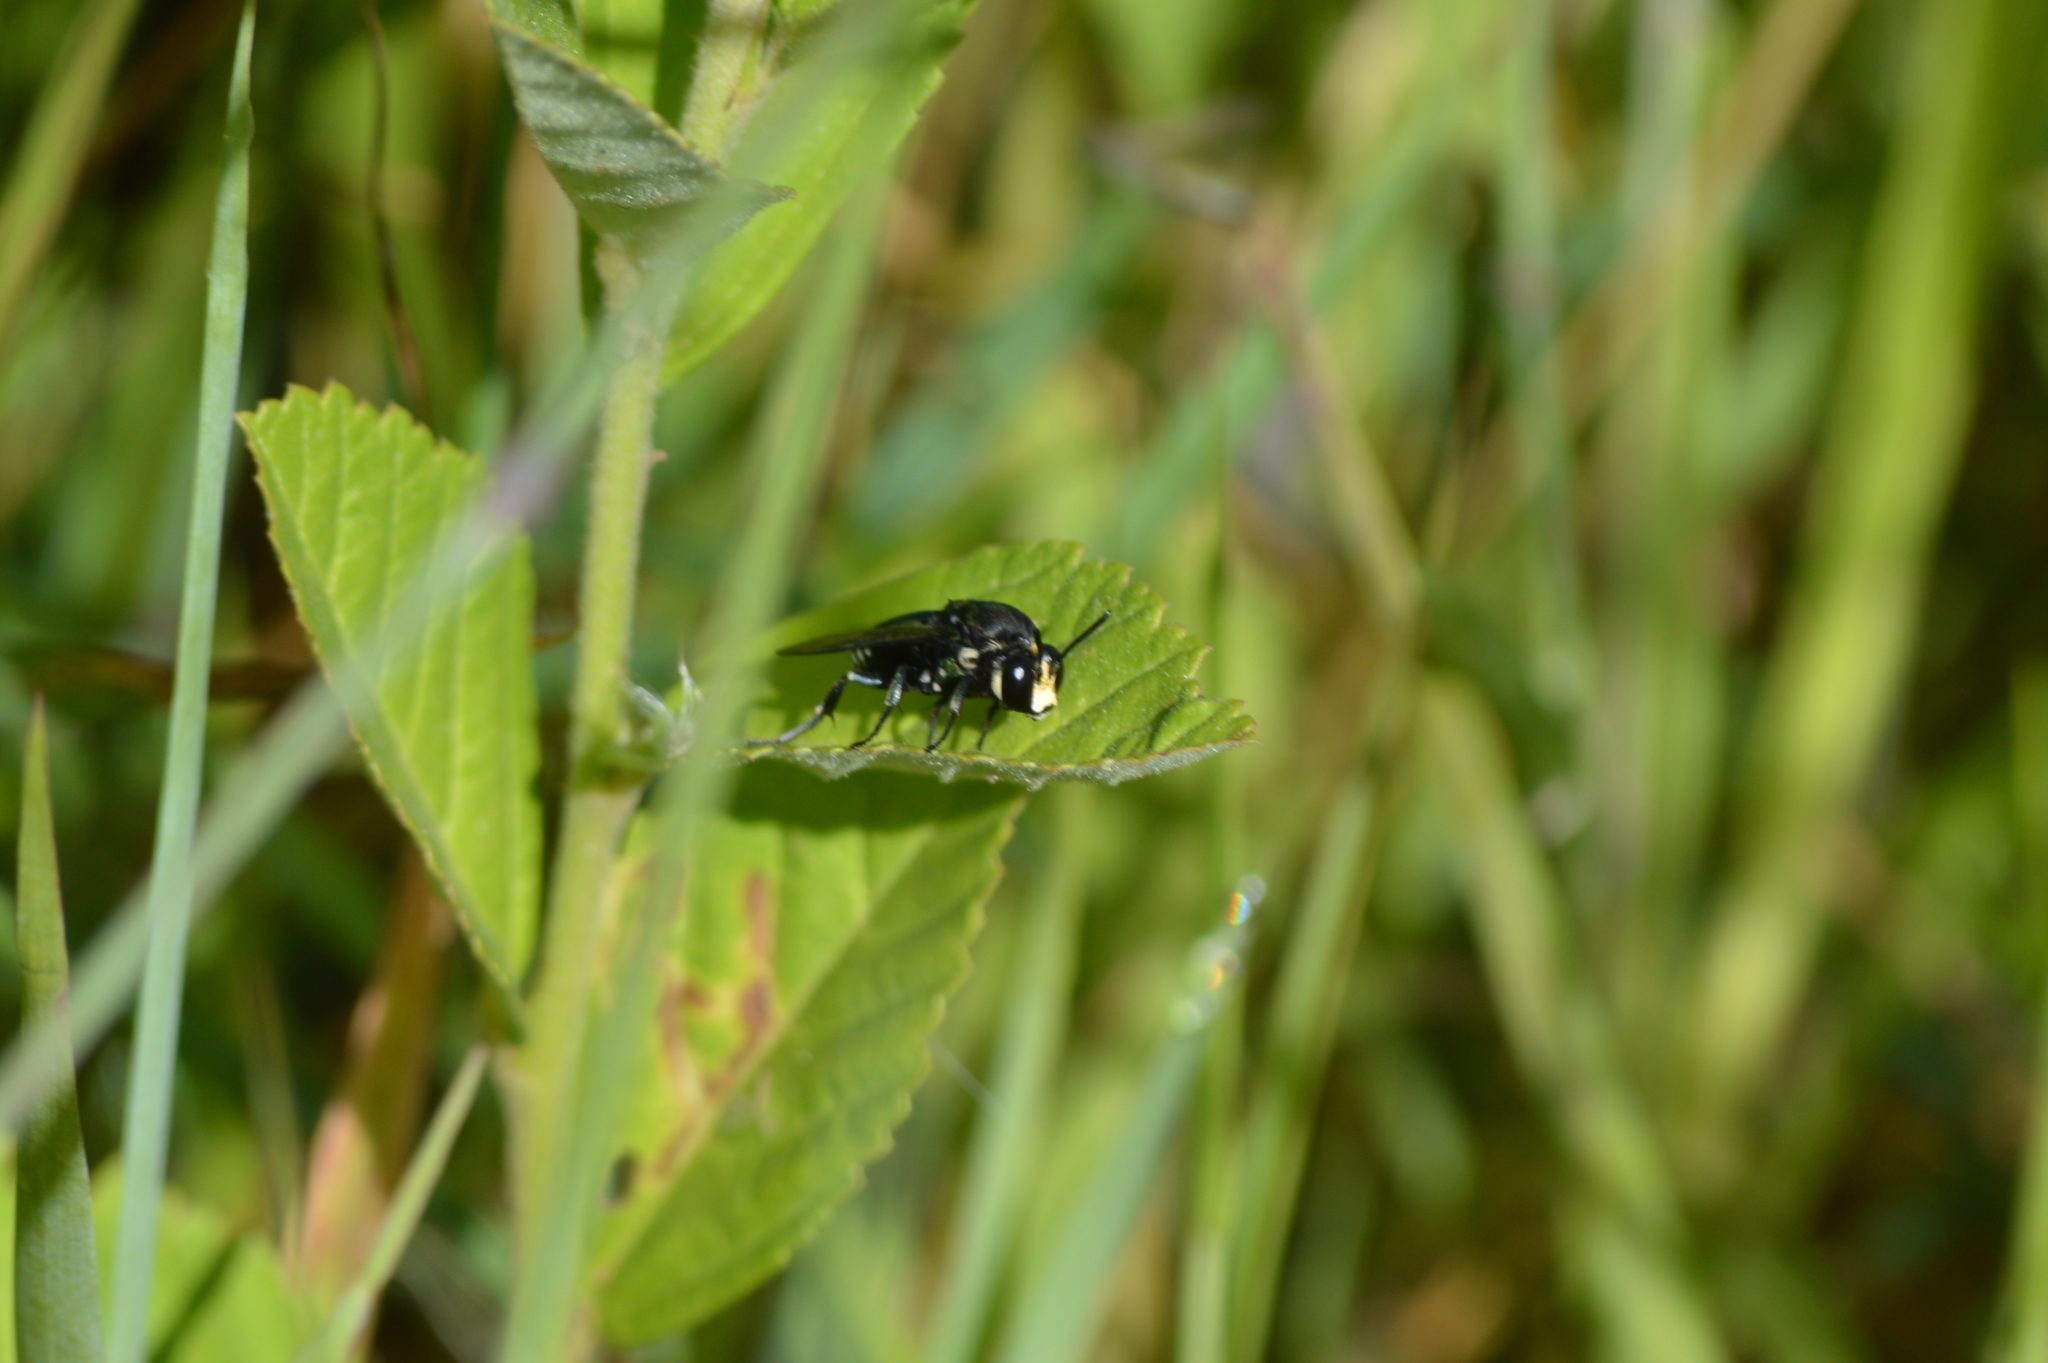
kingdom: Animalia
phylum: Arthropoda
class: Insecta
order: Hymenoptera
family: Apidae
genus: Thalestria
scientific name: Thalestria spinosa
